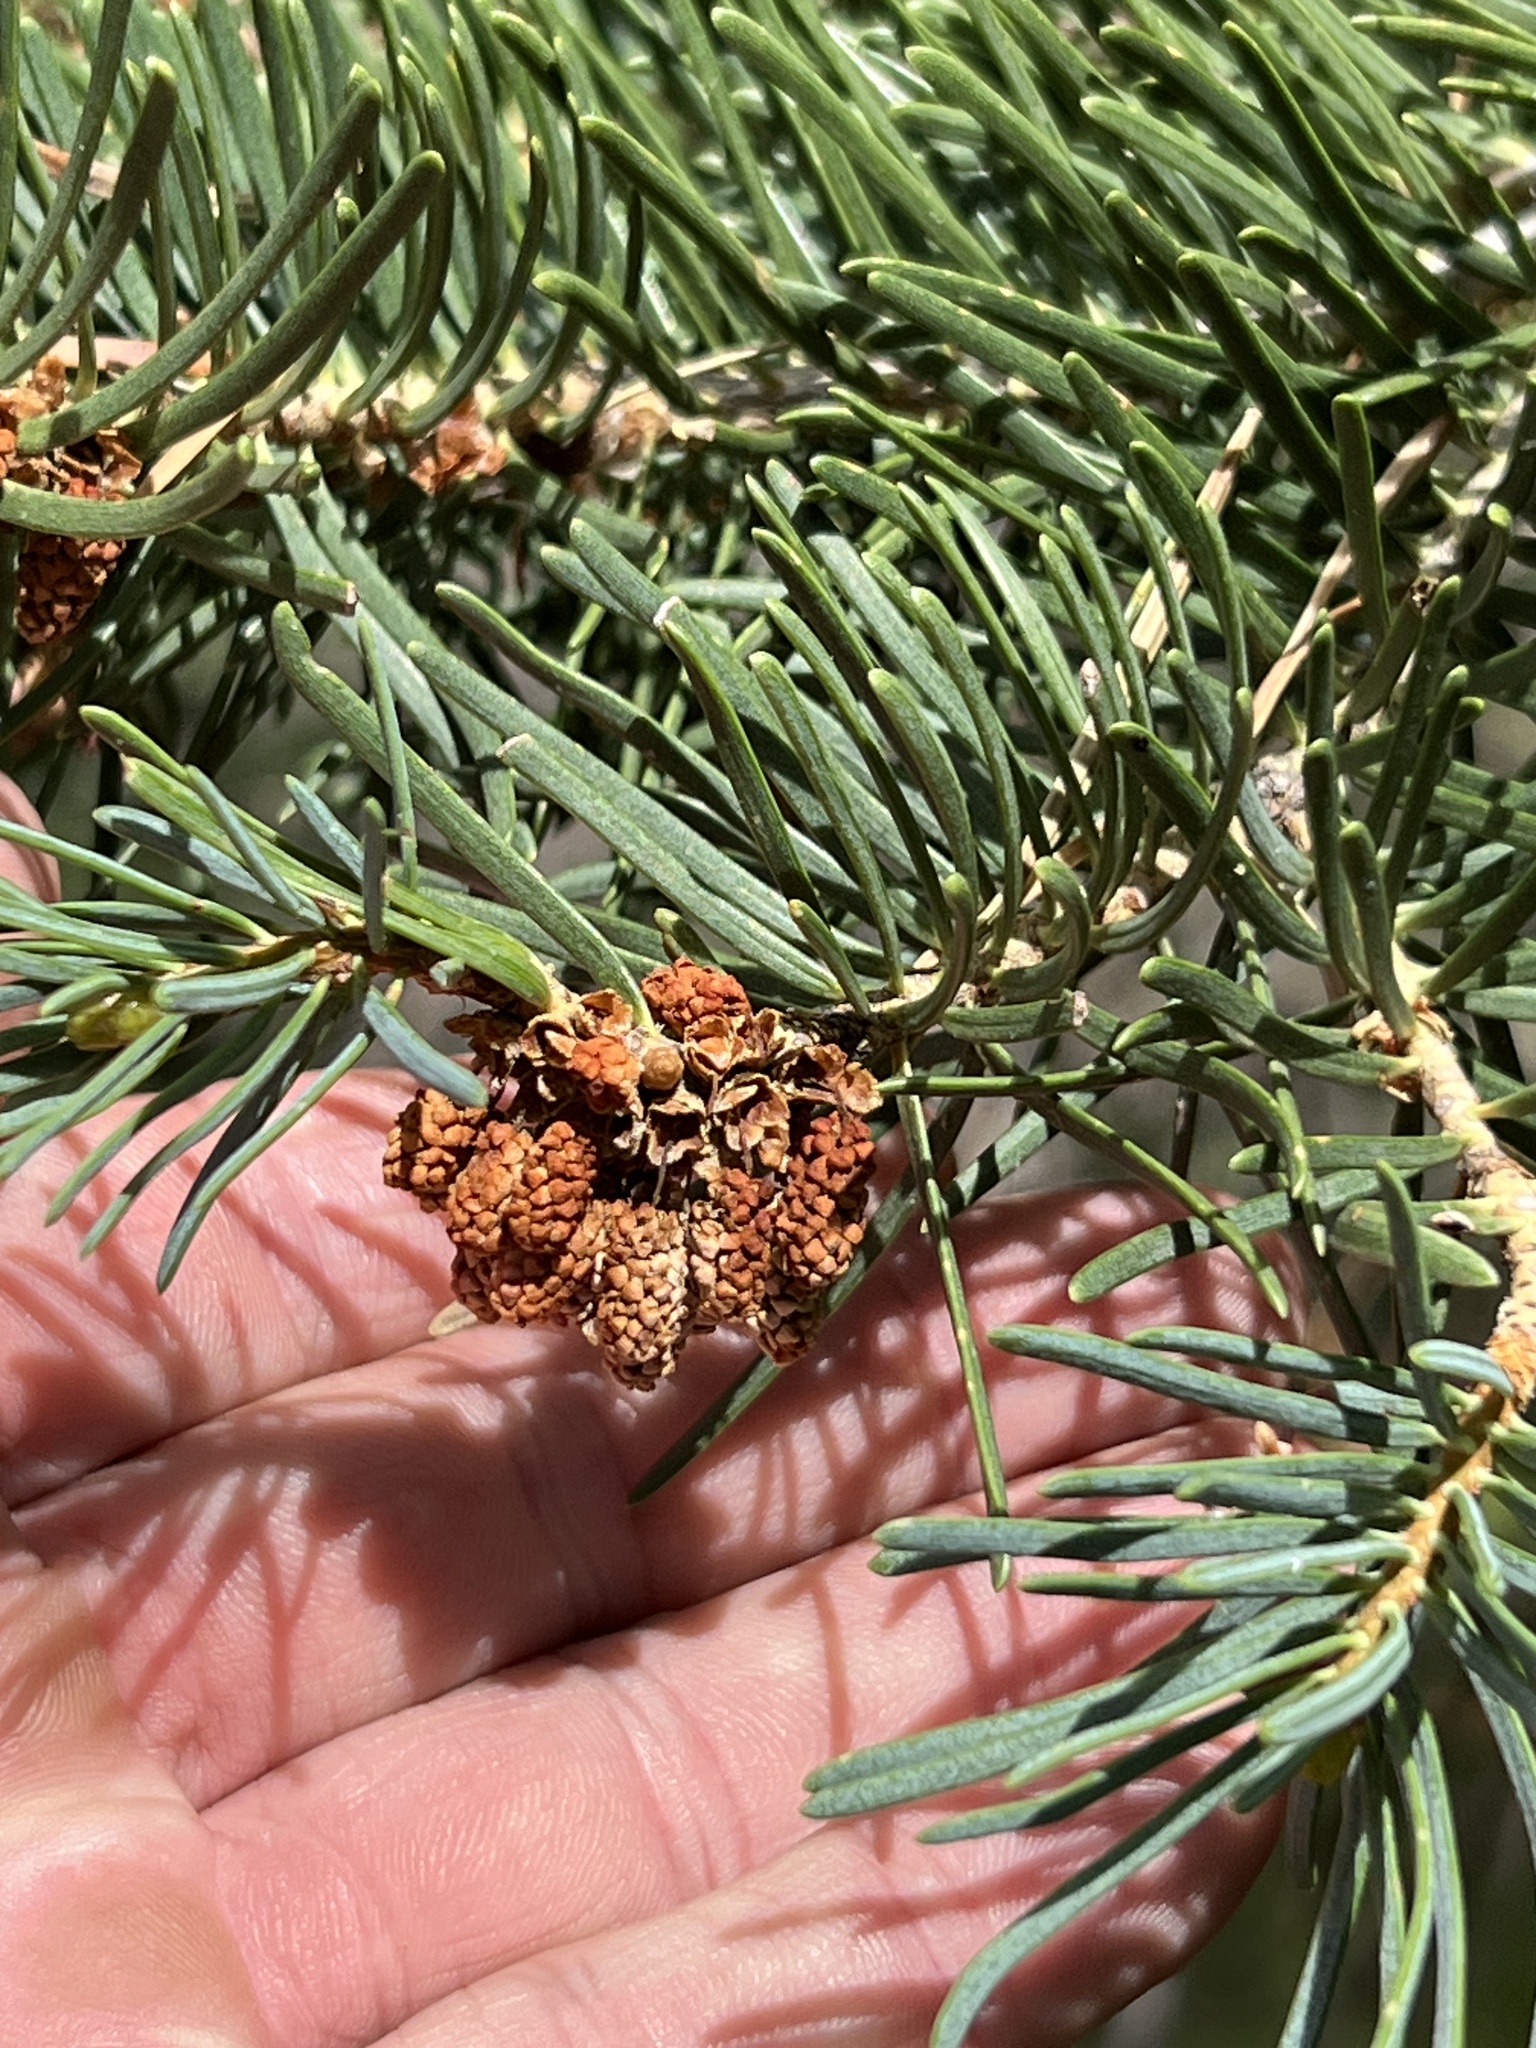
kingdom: Plantae
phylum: Tracheophyta
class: Pinopsida
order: Pinales
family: Pinaceae
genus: Abies
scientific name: Abies concolor
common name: Colorado fir
